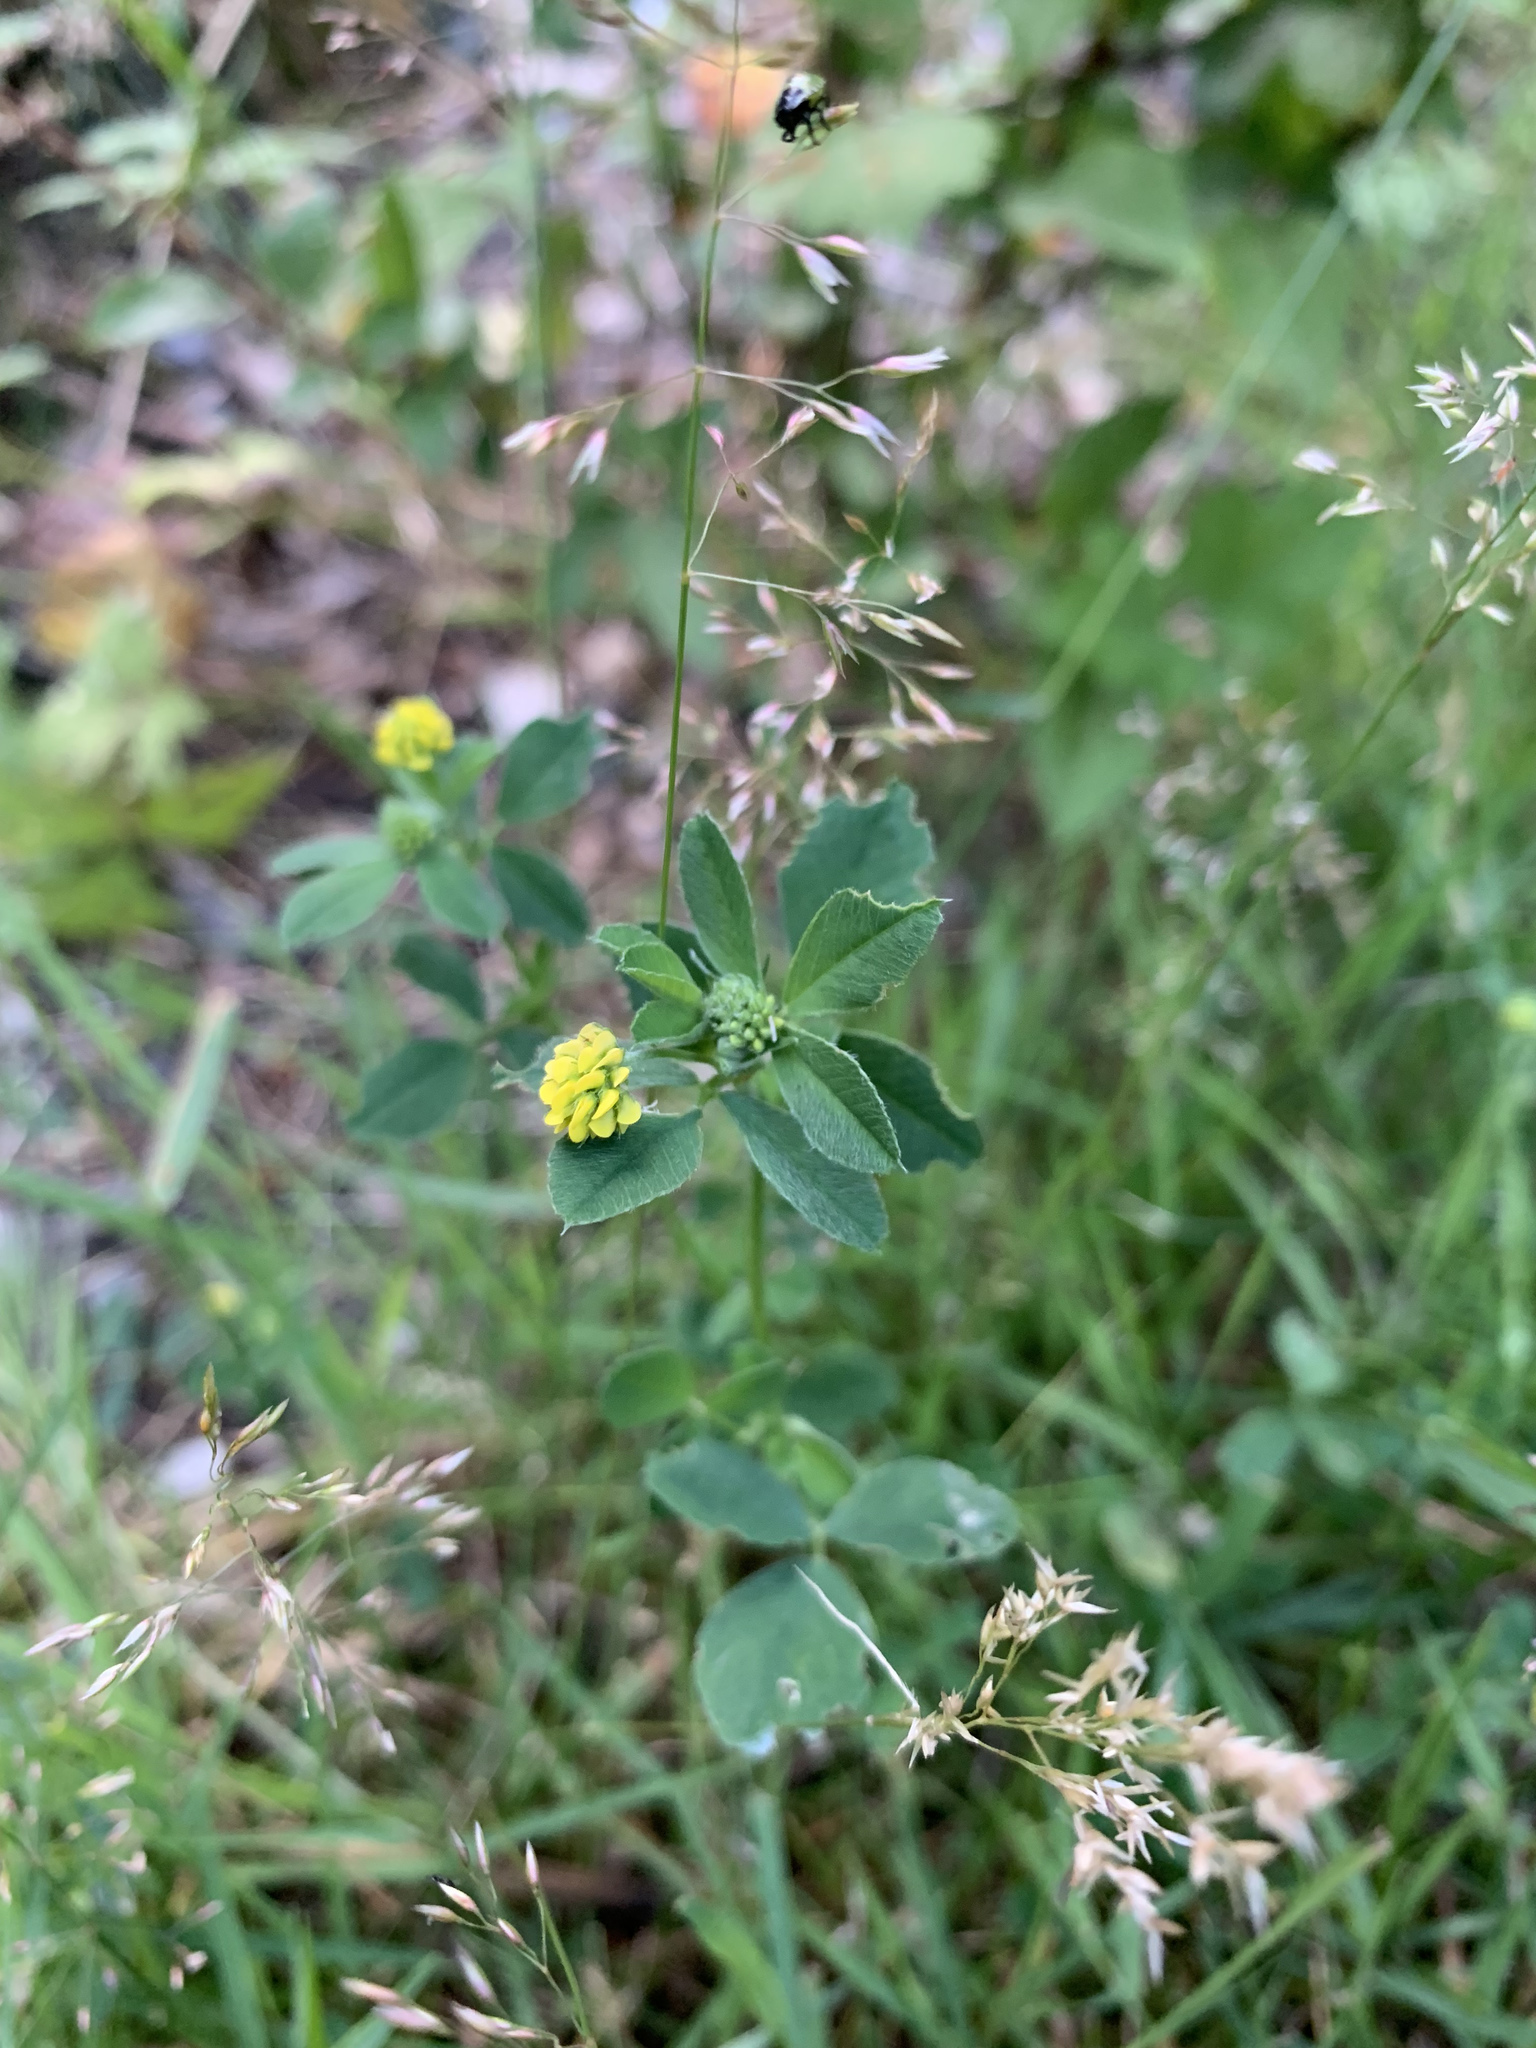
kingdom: Plantae
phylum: Tracheophyta
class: Magnoliopsida
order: Fabales
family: Fabaceae
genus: Medicago
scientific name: Medicago lupulina
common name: Black medick
